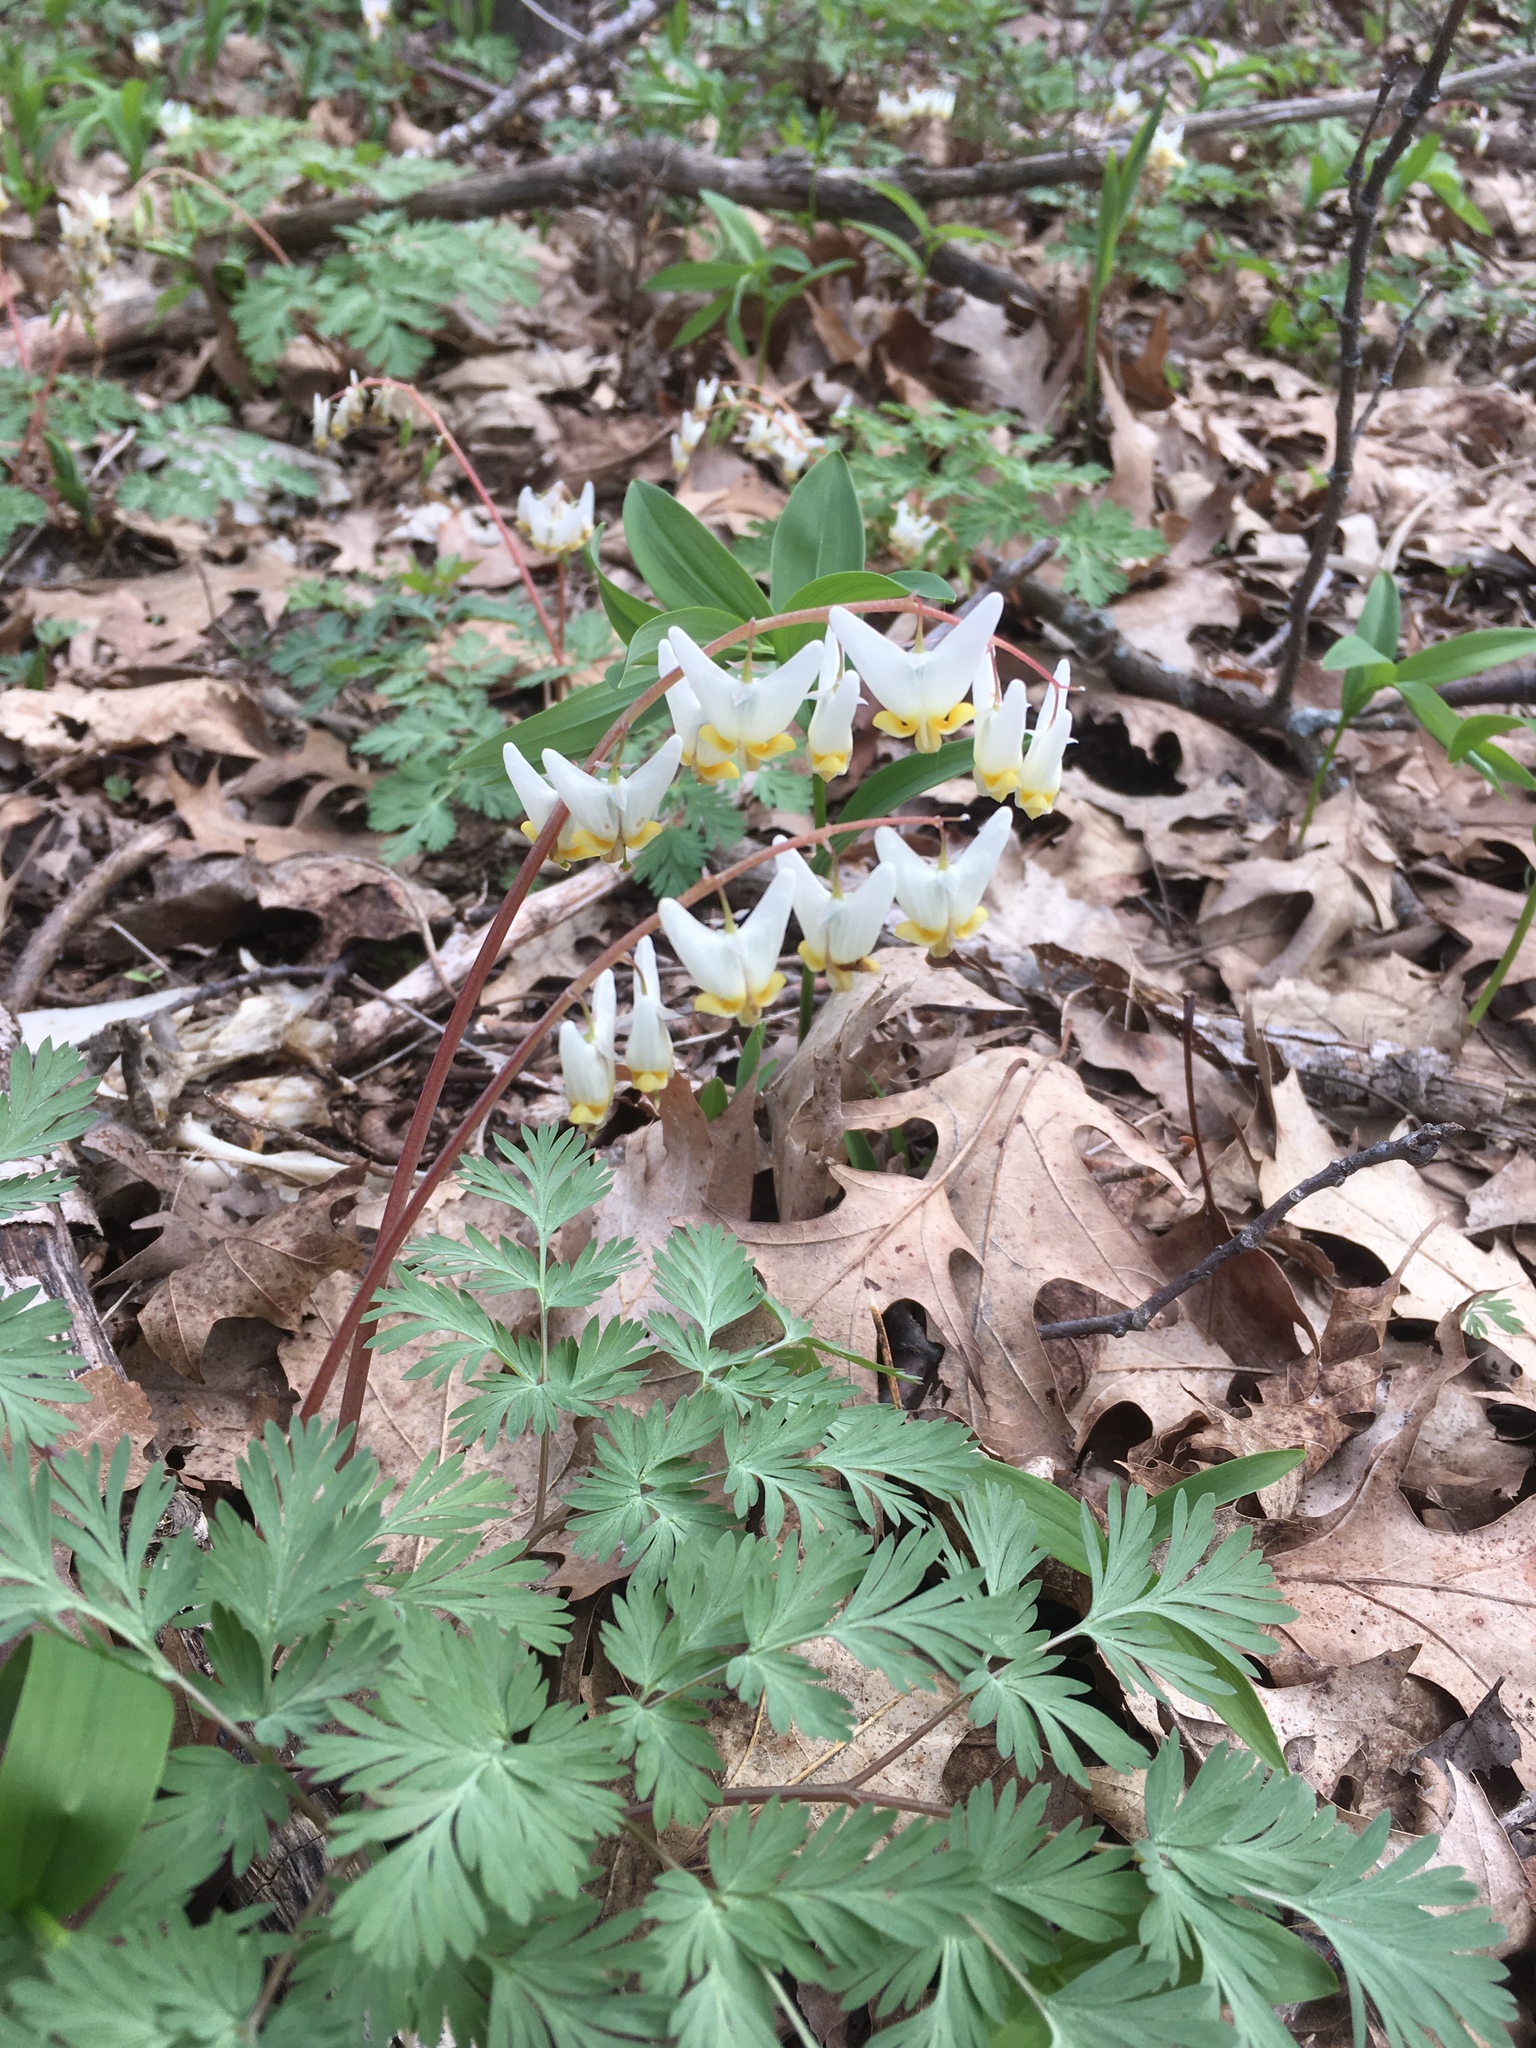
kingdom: Plantae
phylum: Tracheophyta
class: Magnoliopsida
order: Ranunculales
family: Papaveraceae
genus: Dicentra
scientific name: Dicentra cucullaria
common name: Dutchman's breeches
